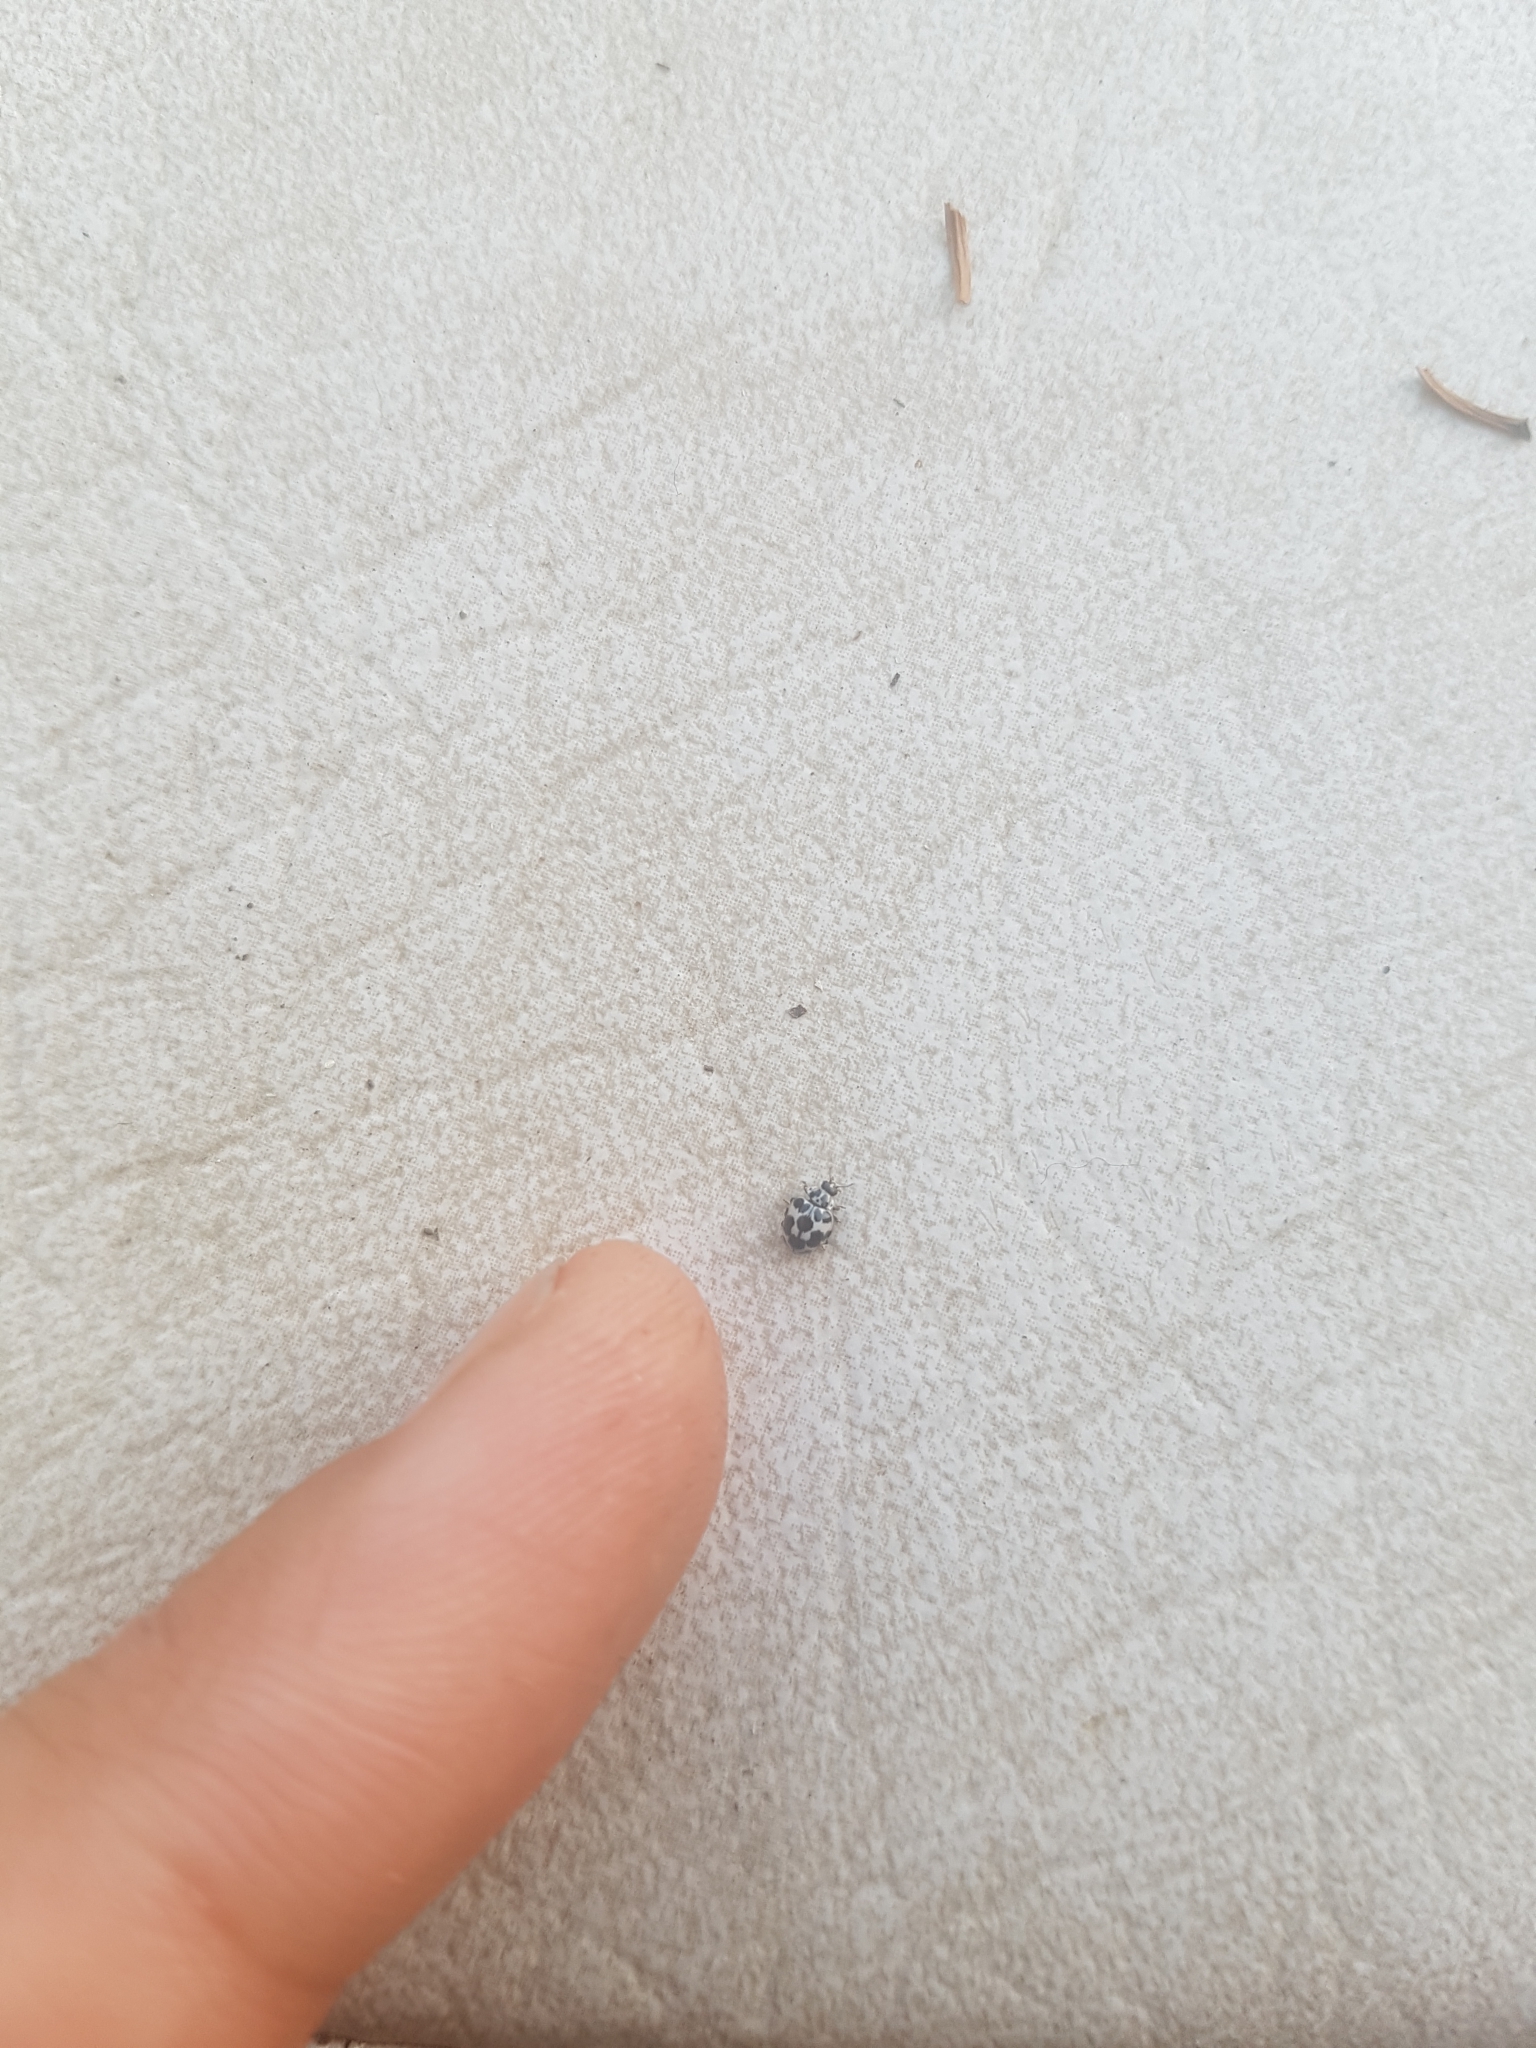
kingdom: Animalia
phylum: Arthropoda
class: Insecta
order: Coleoptera
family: Coccinellidae
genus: Psyllobora
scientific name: Psyllobora
